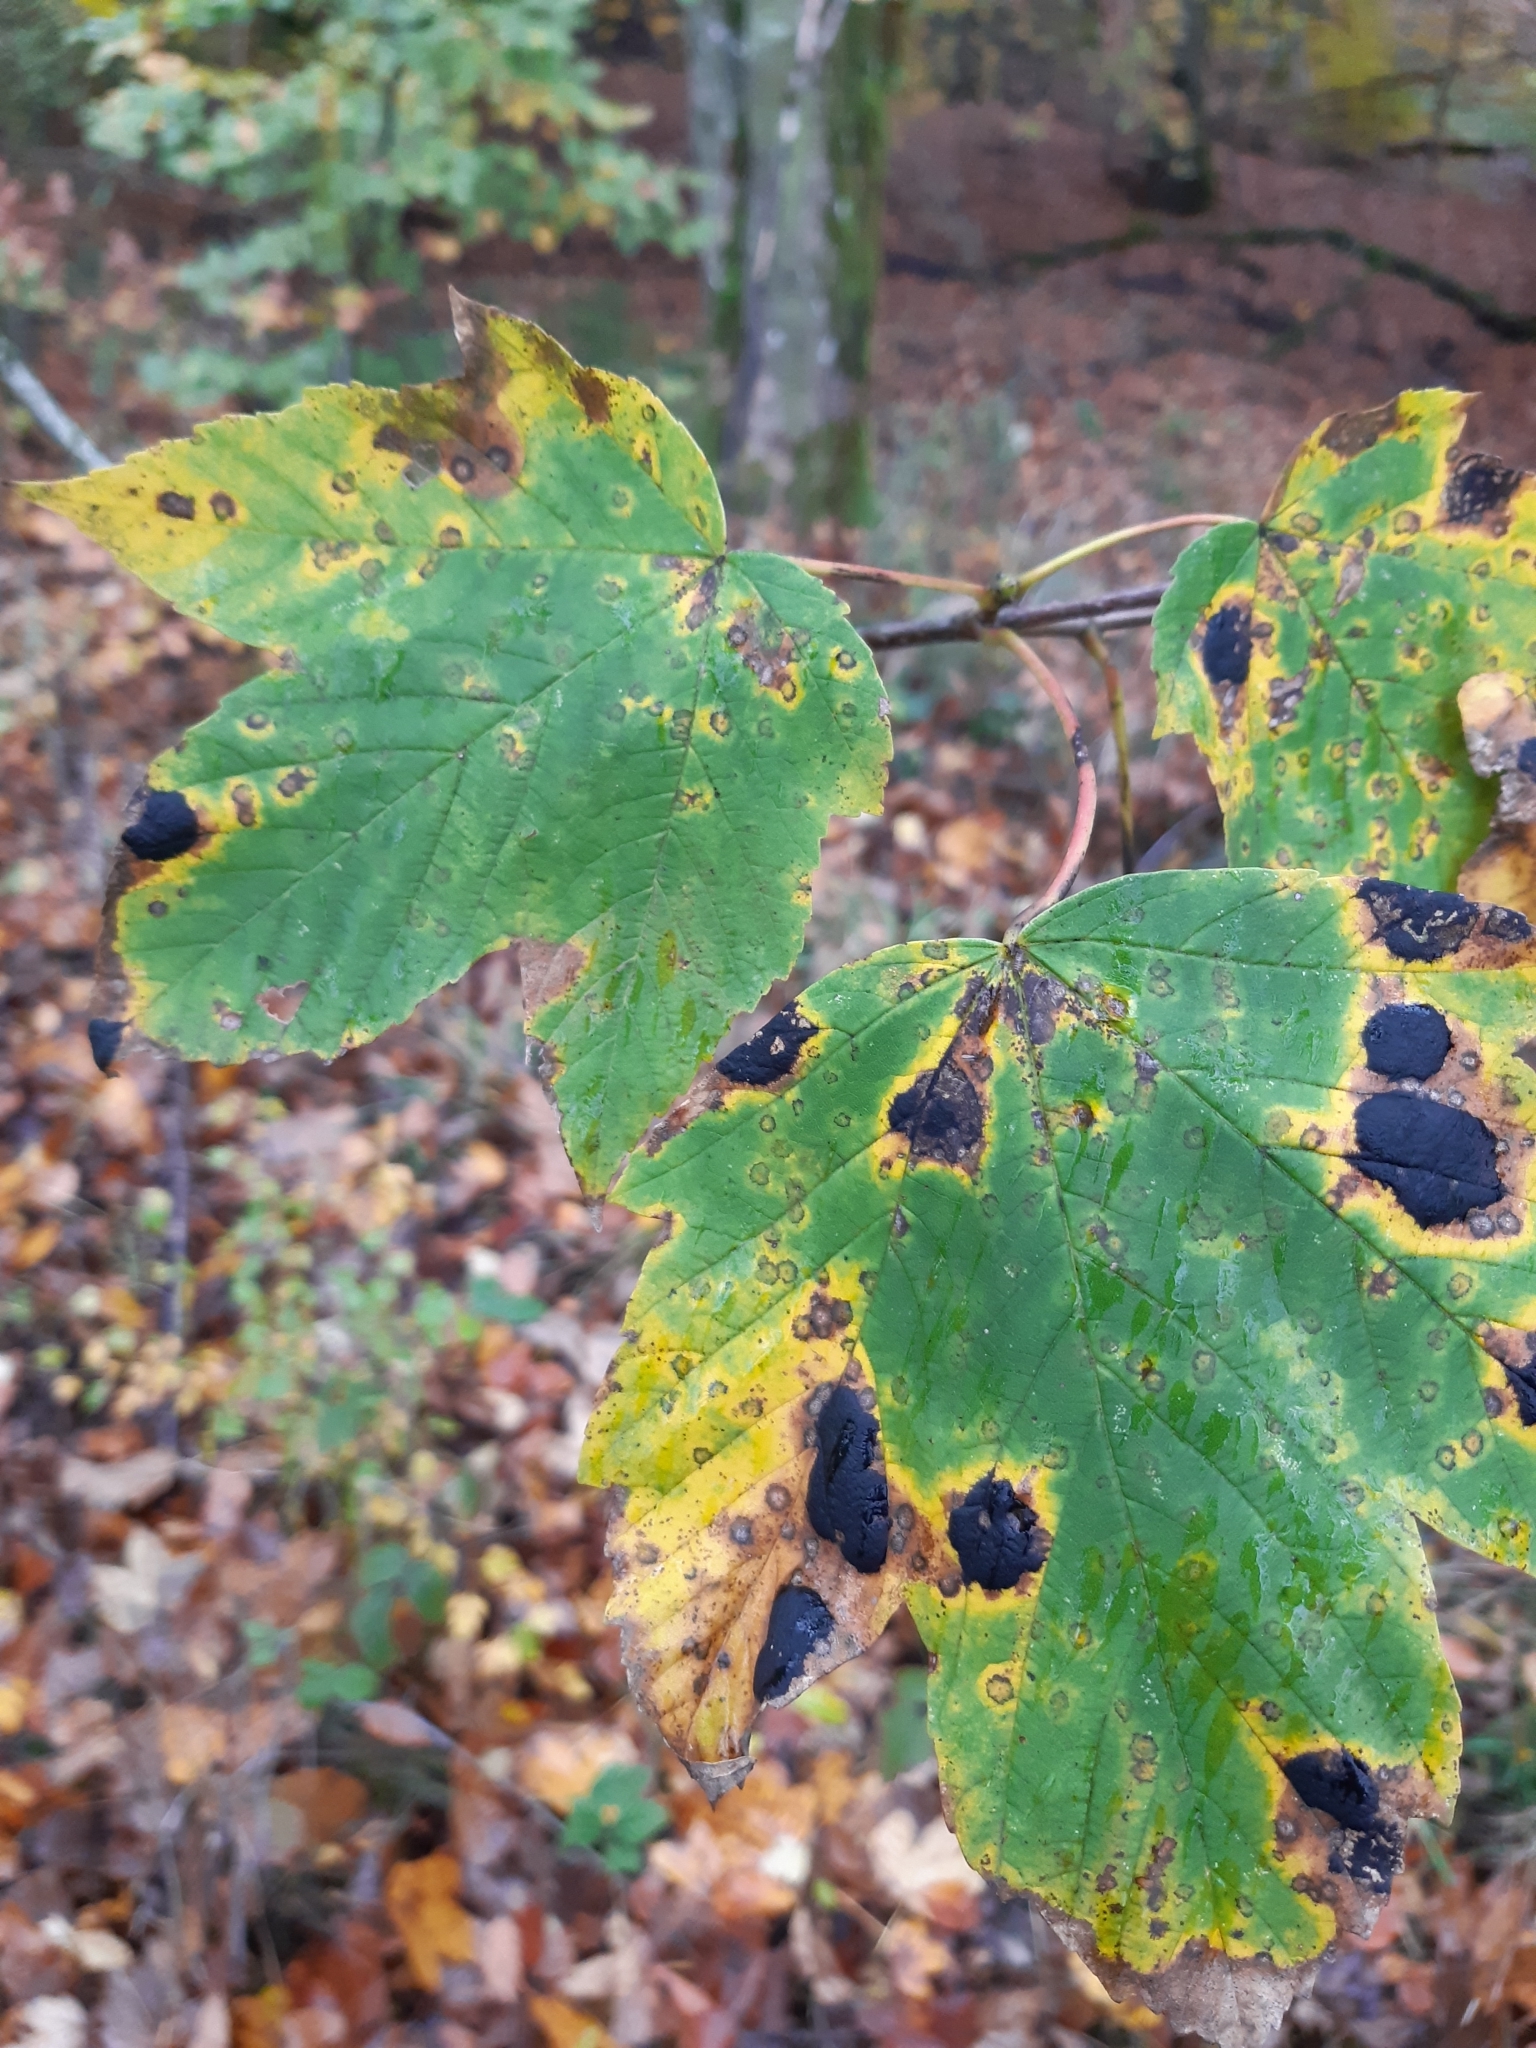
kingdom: Plantae
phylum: Tracheophyta
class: Magnoliopsida
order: Sapindales
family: Sapindaceae
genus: Acer
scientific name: Acer pseudoplatanus
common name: Sycamore
